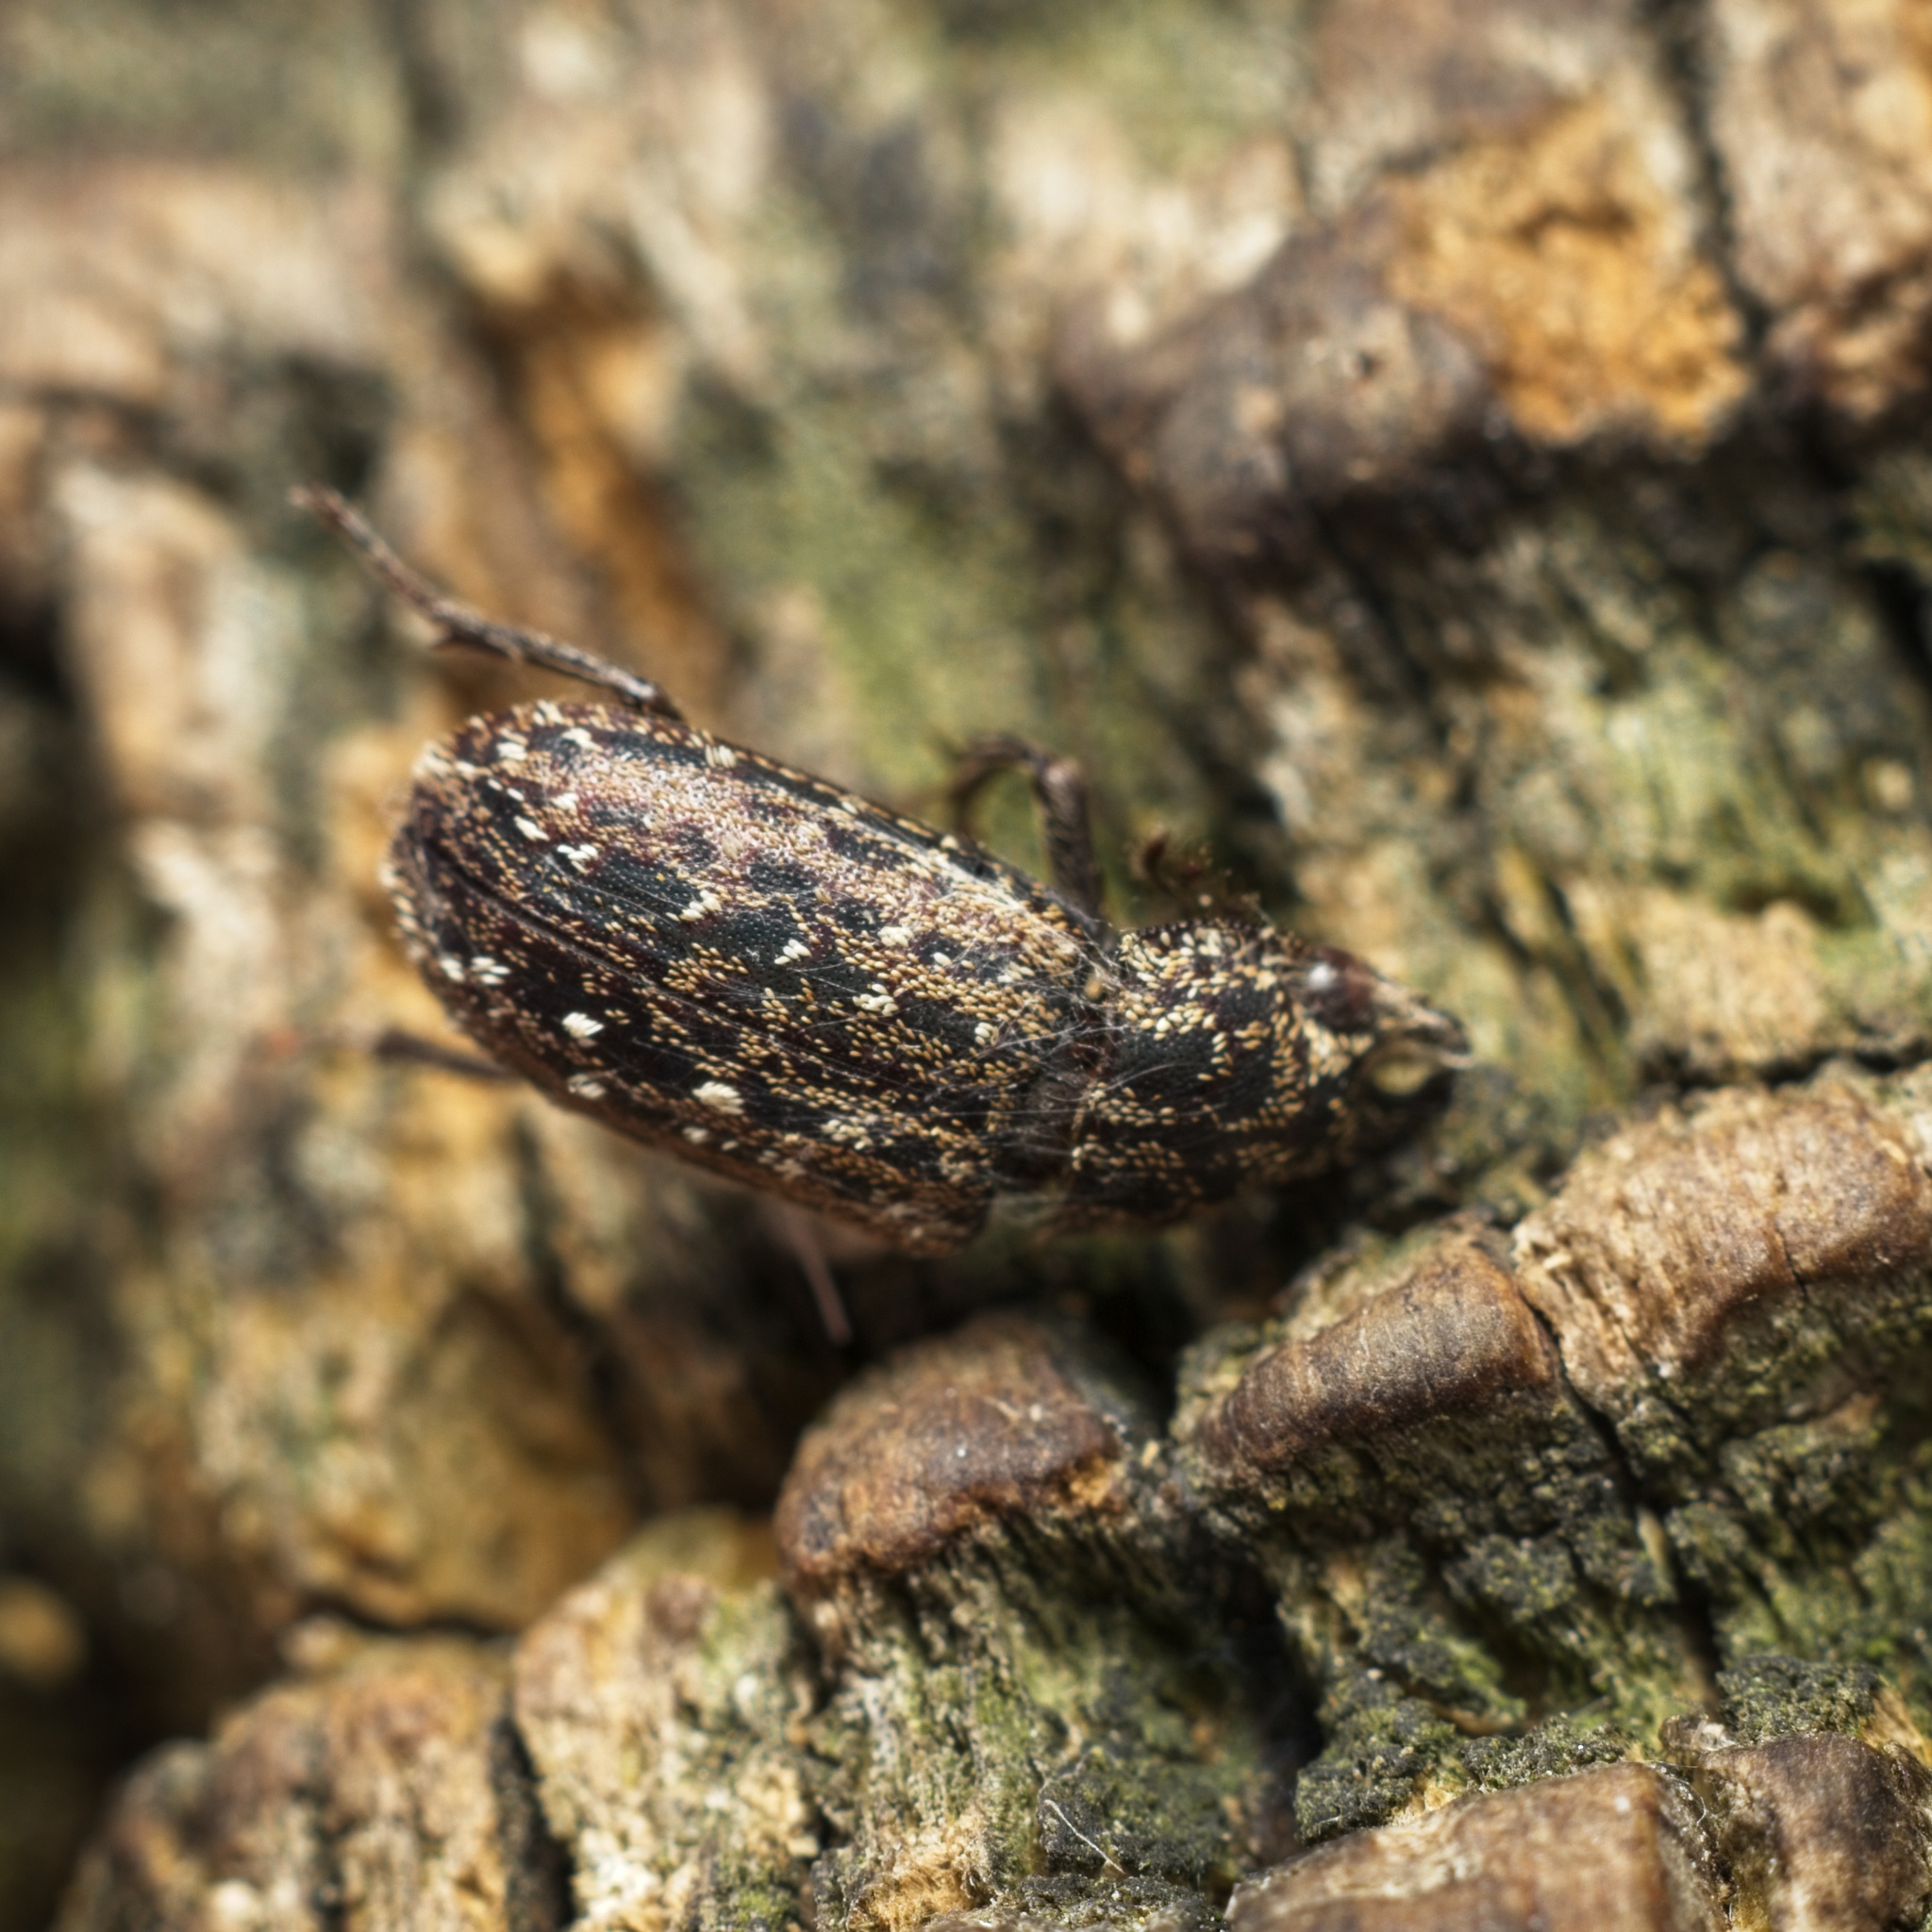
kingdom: Animalia
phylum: Arthropoda
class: Insecta
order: Coleoptera
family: Lucanidae
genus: Mitophyllus
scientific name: Mitophyllus arcuatus
